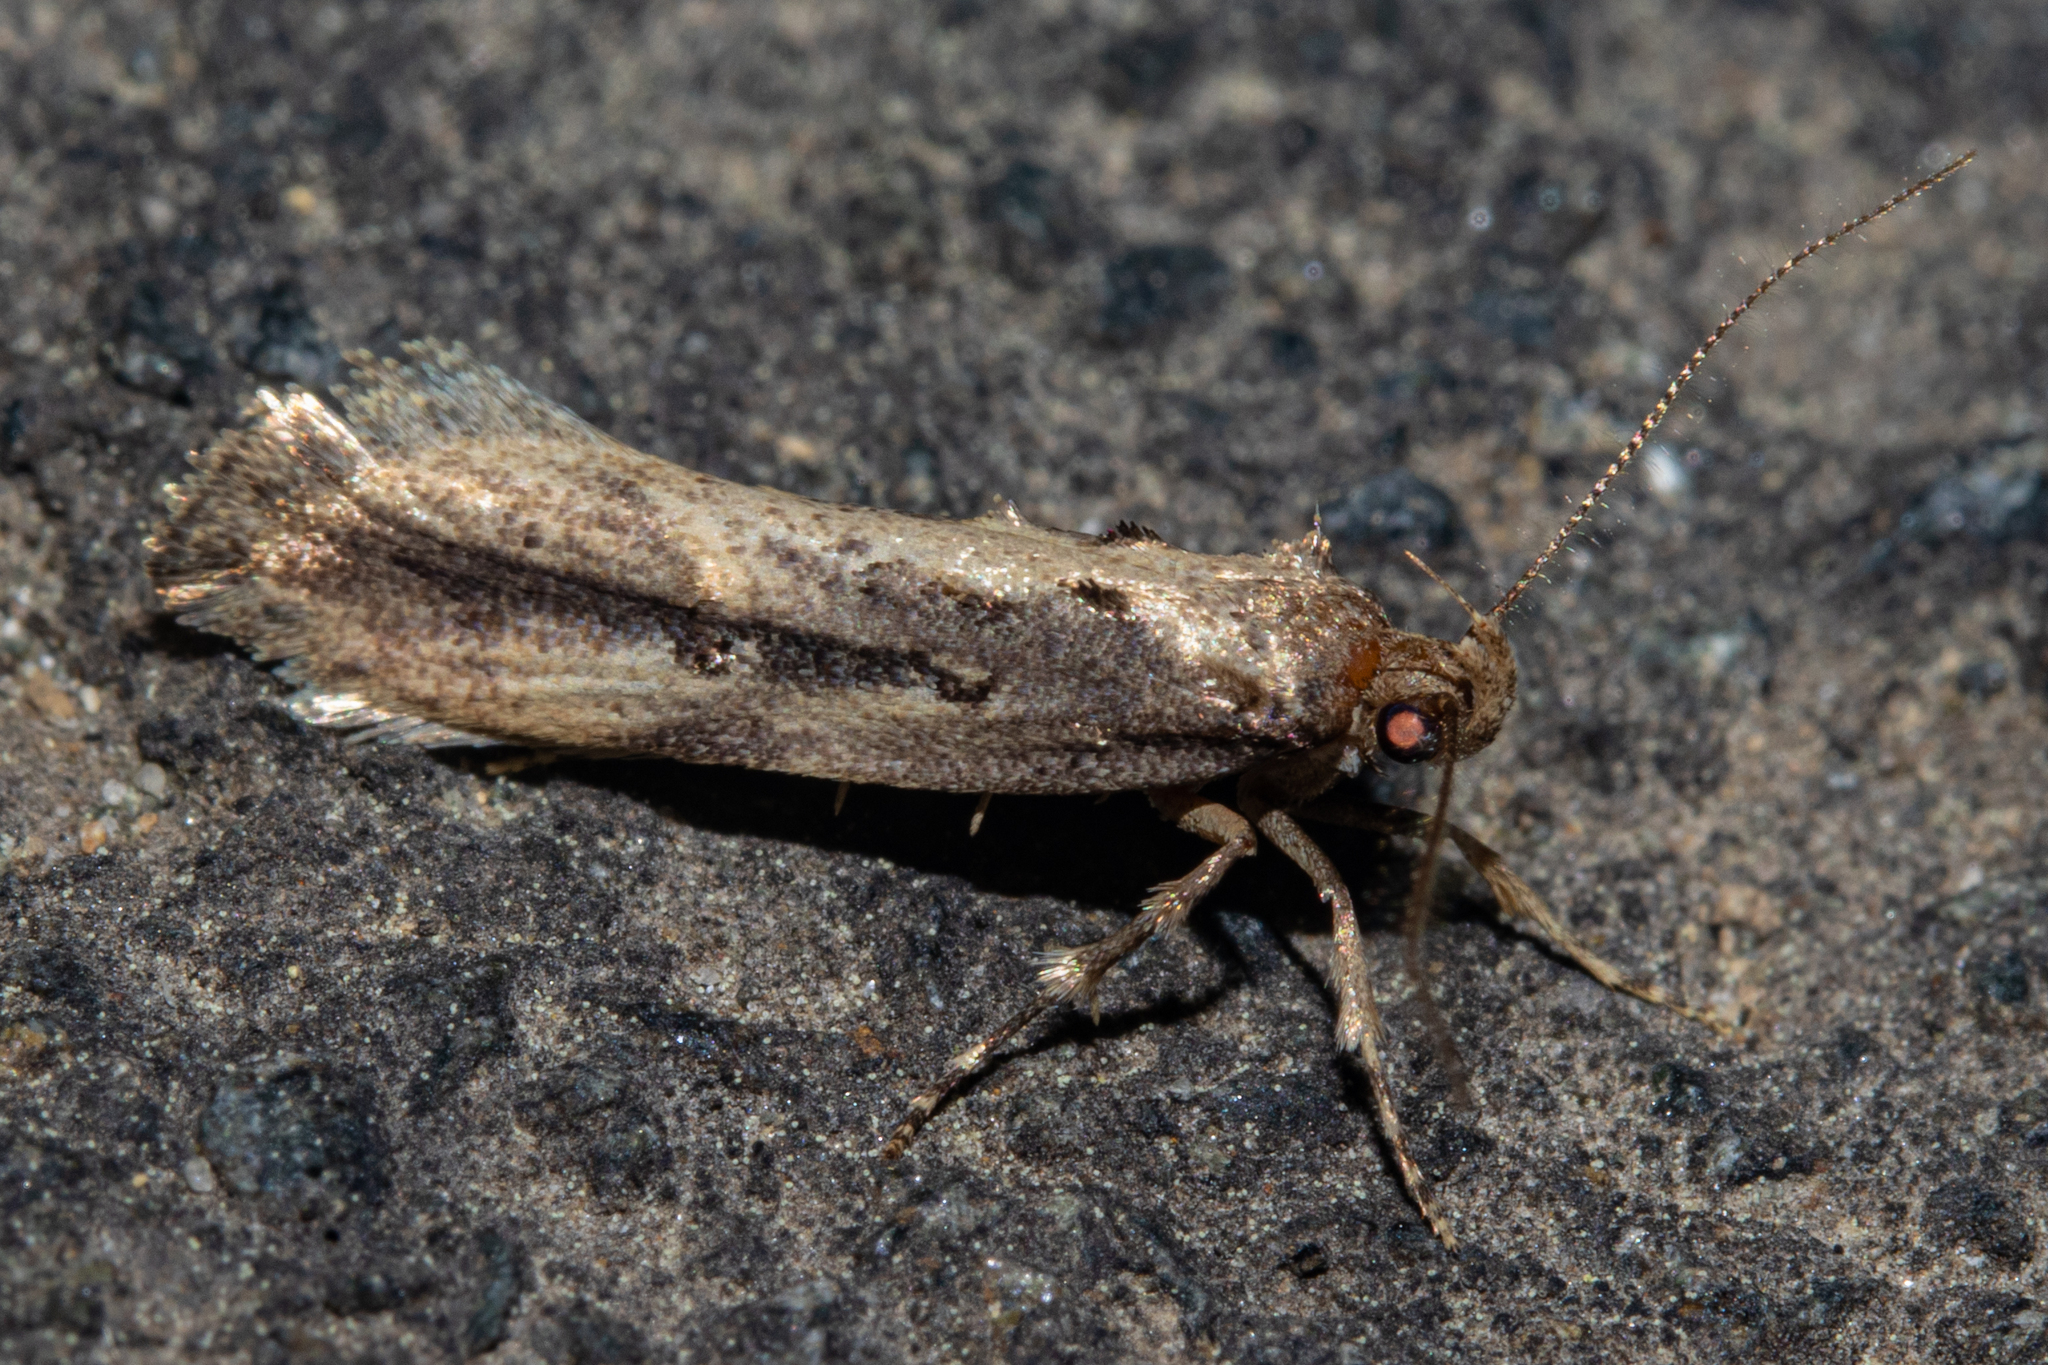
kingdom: Animalia
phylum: Arthropoda
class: Insecta
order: Lepidoptera
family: Oecophoridae
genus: Atomotricha
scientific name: Atomotricha chloronota
